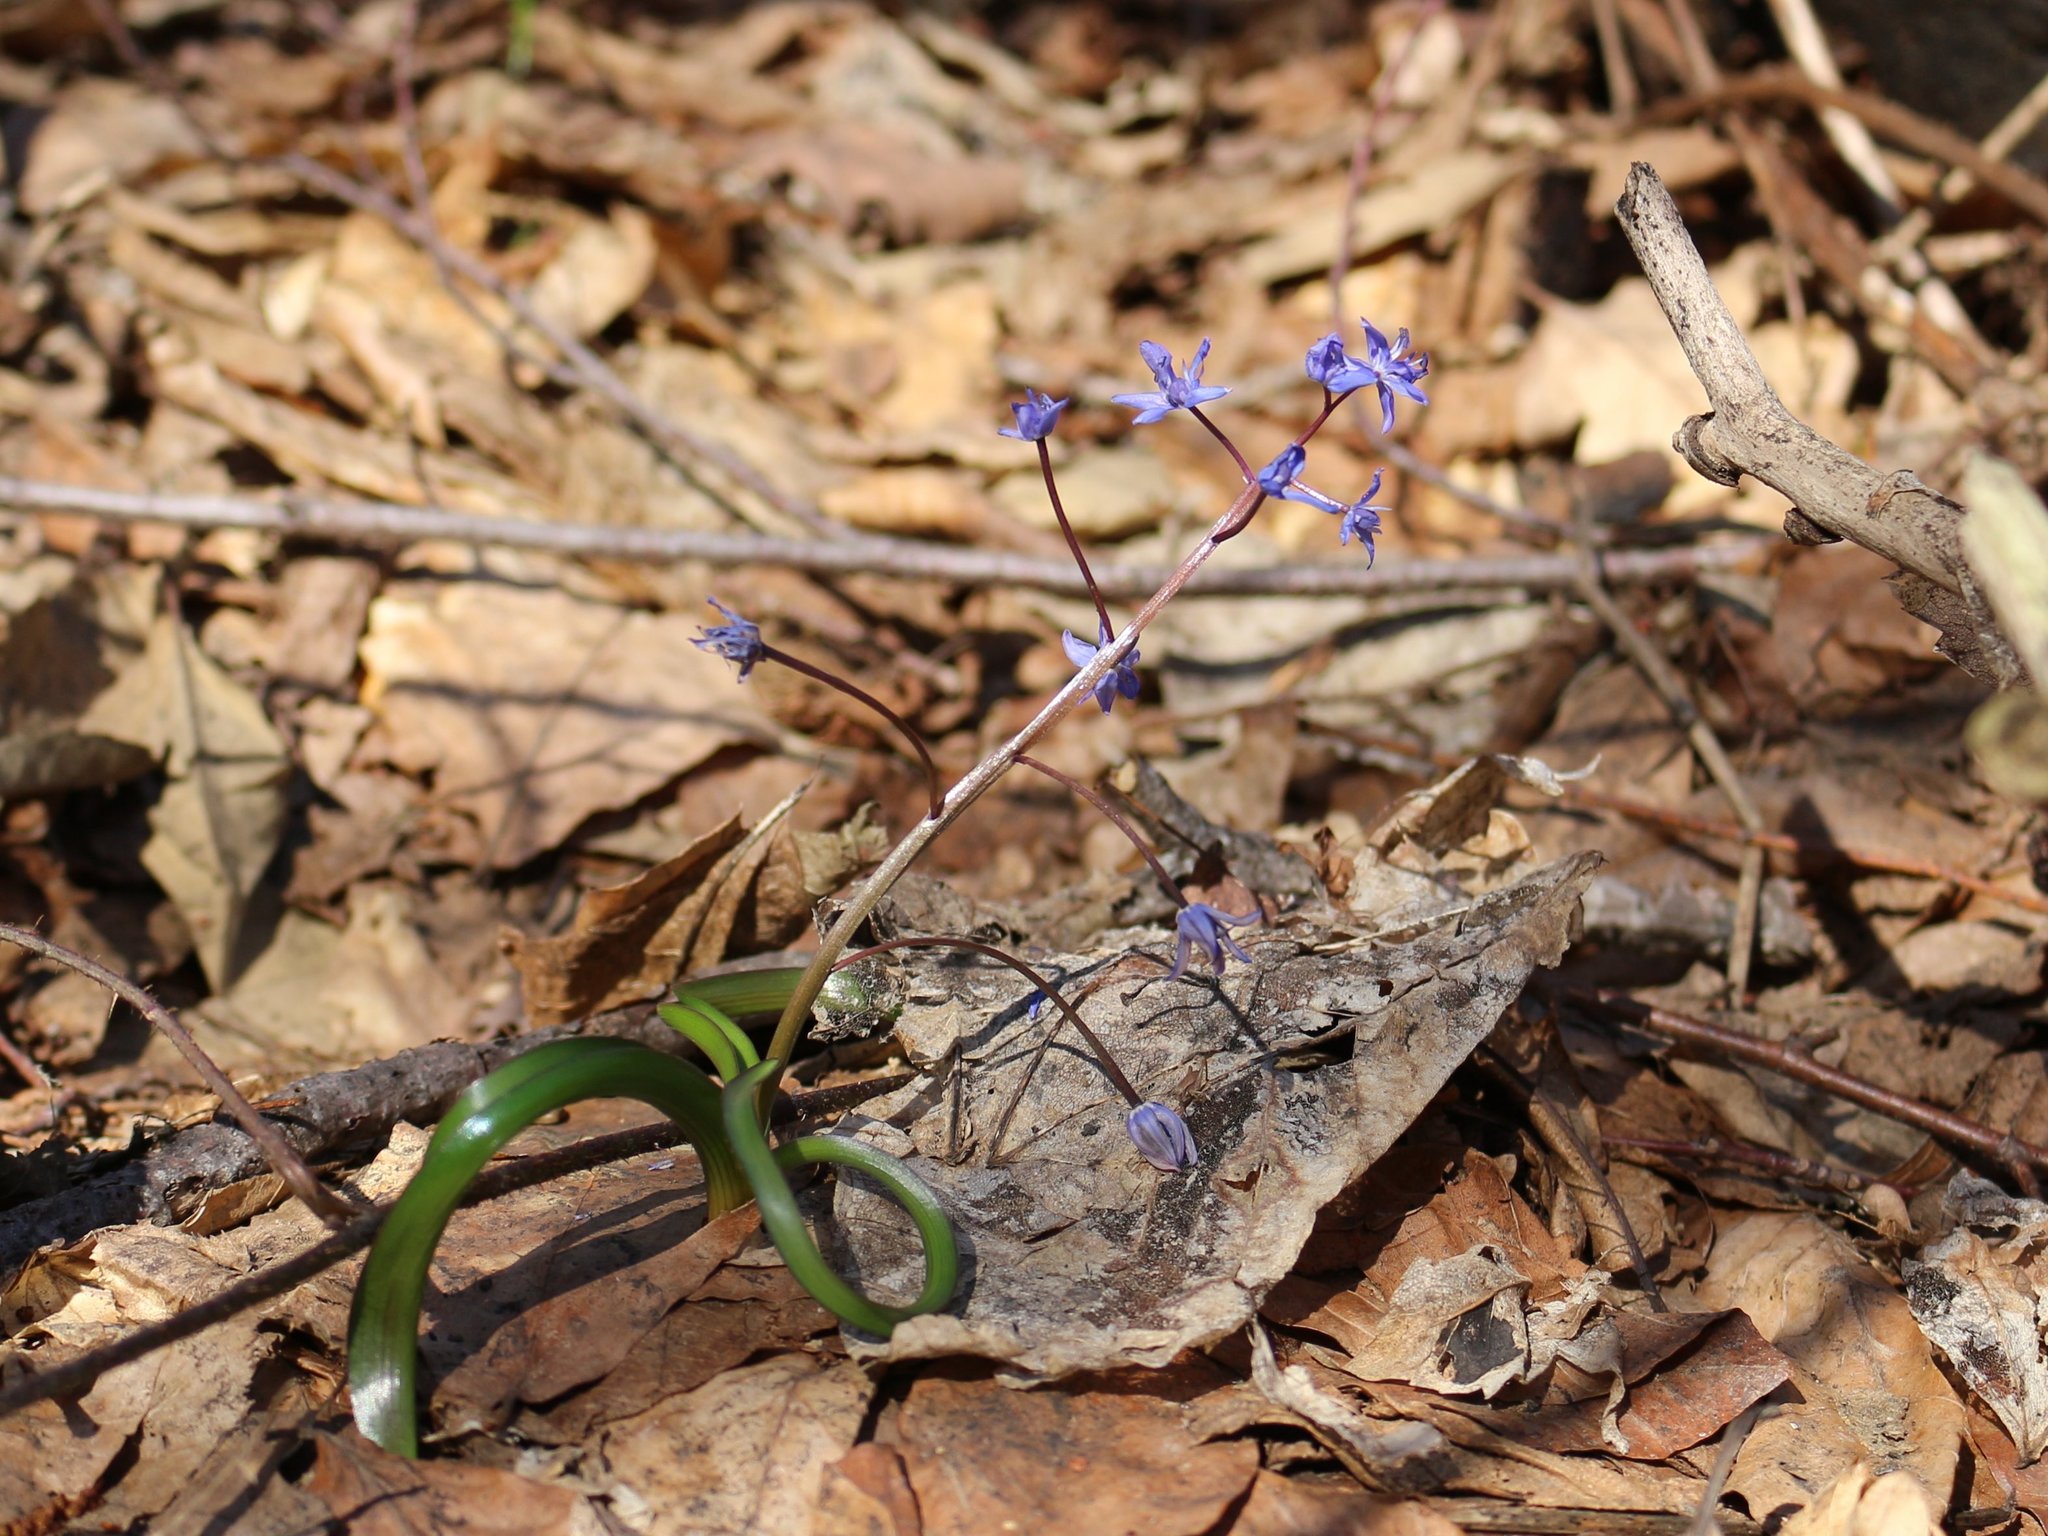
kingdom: Plantae
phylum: Tracheophyta
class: Liliopsida
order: Asparagales
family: Asparagaceae
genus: Scilla
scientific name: Scilla bifolia
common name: Alpine squill
